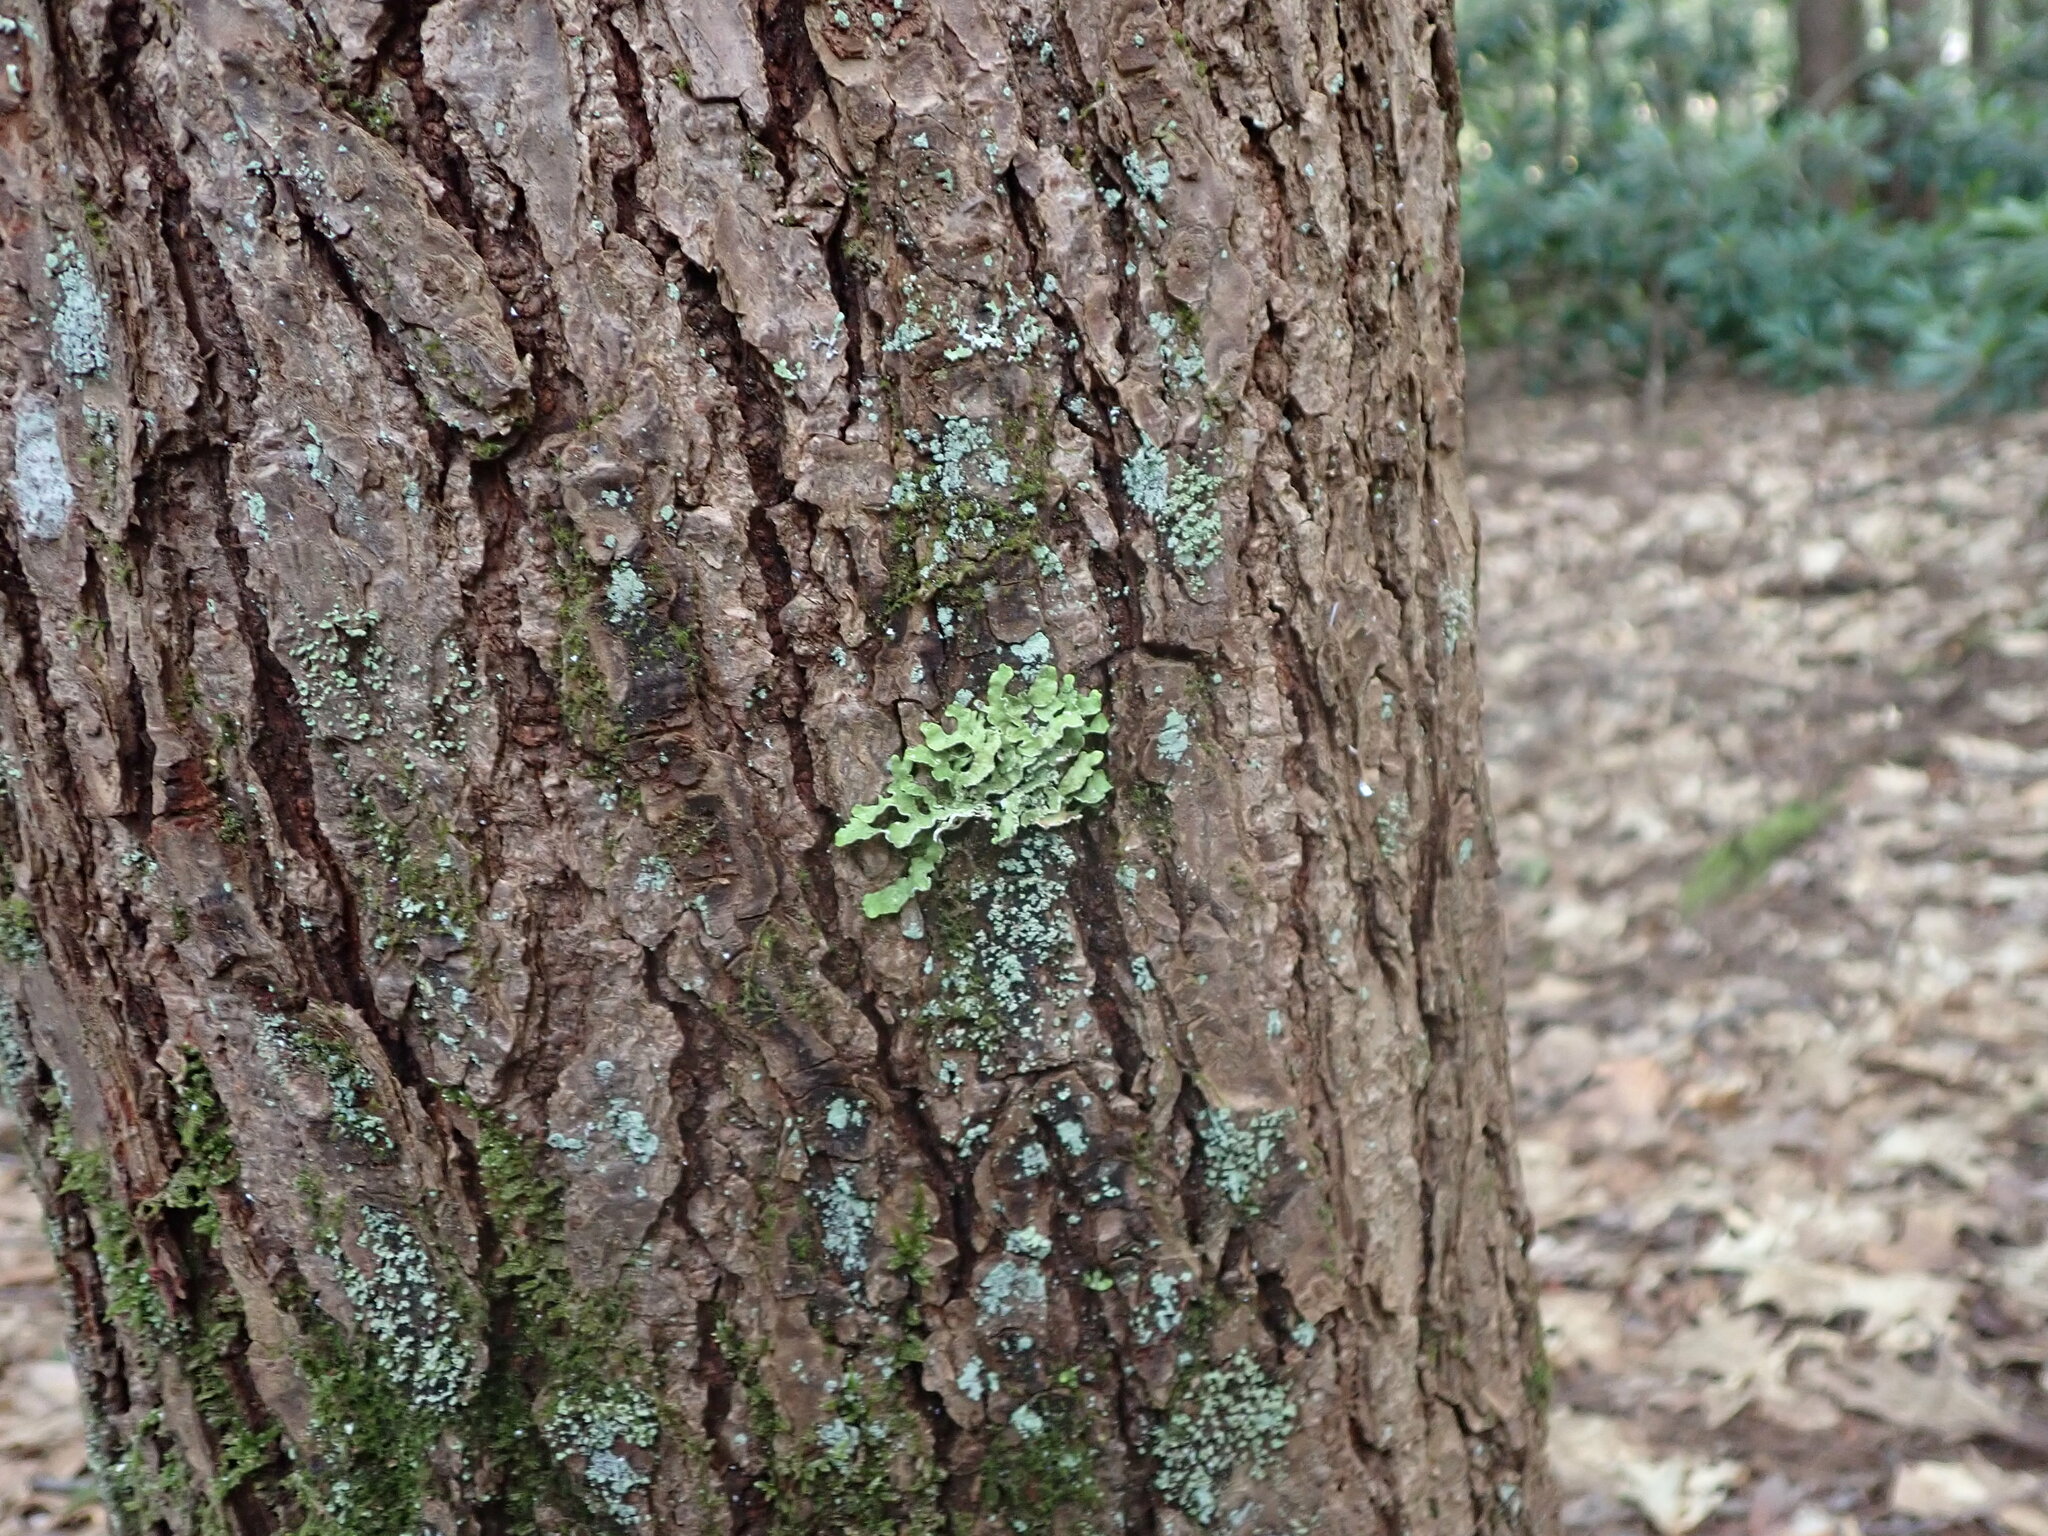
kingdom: Fungi
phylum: Ascomycota
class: Lecanoromycetes
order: Lecanorales
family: Parmeliaceae
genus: Usnocetraria
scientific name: Usnocetraria oakesiana
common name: Yellow ribbon lichen
